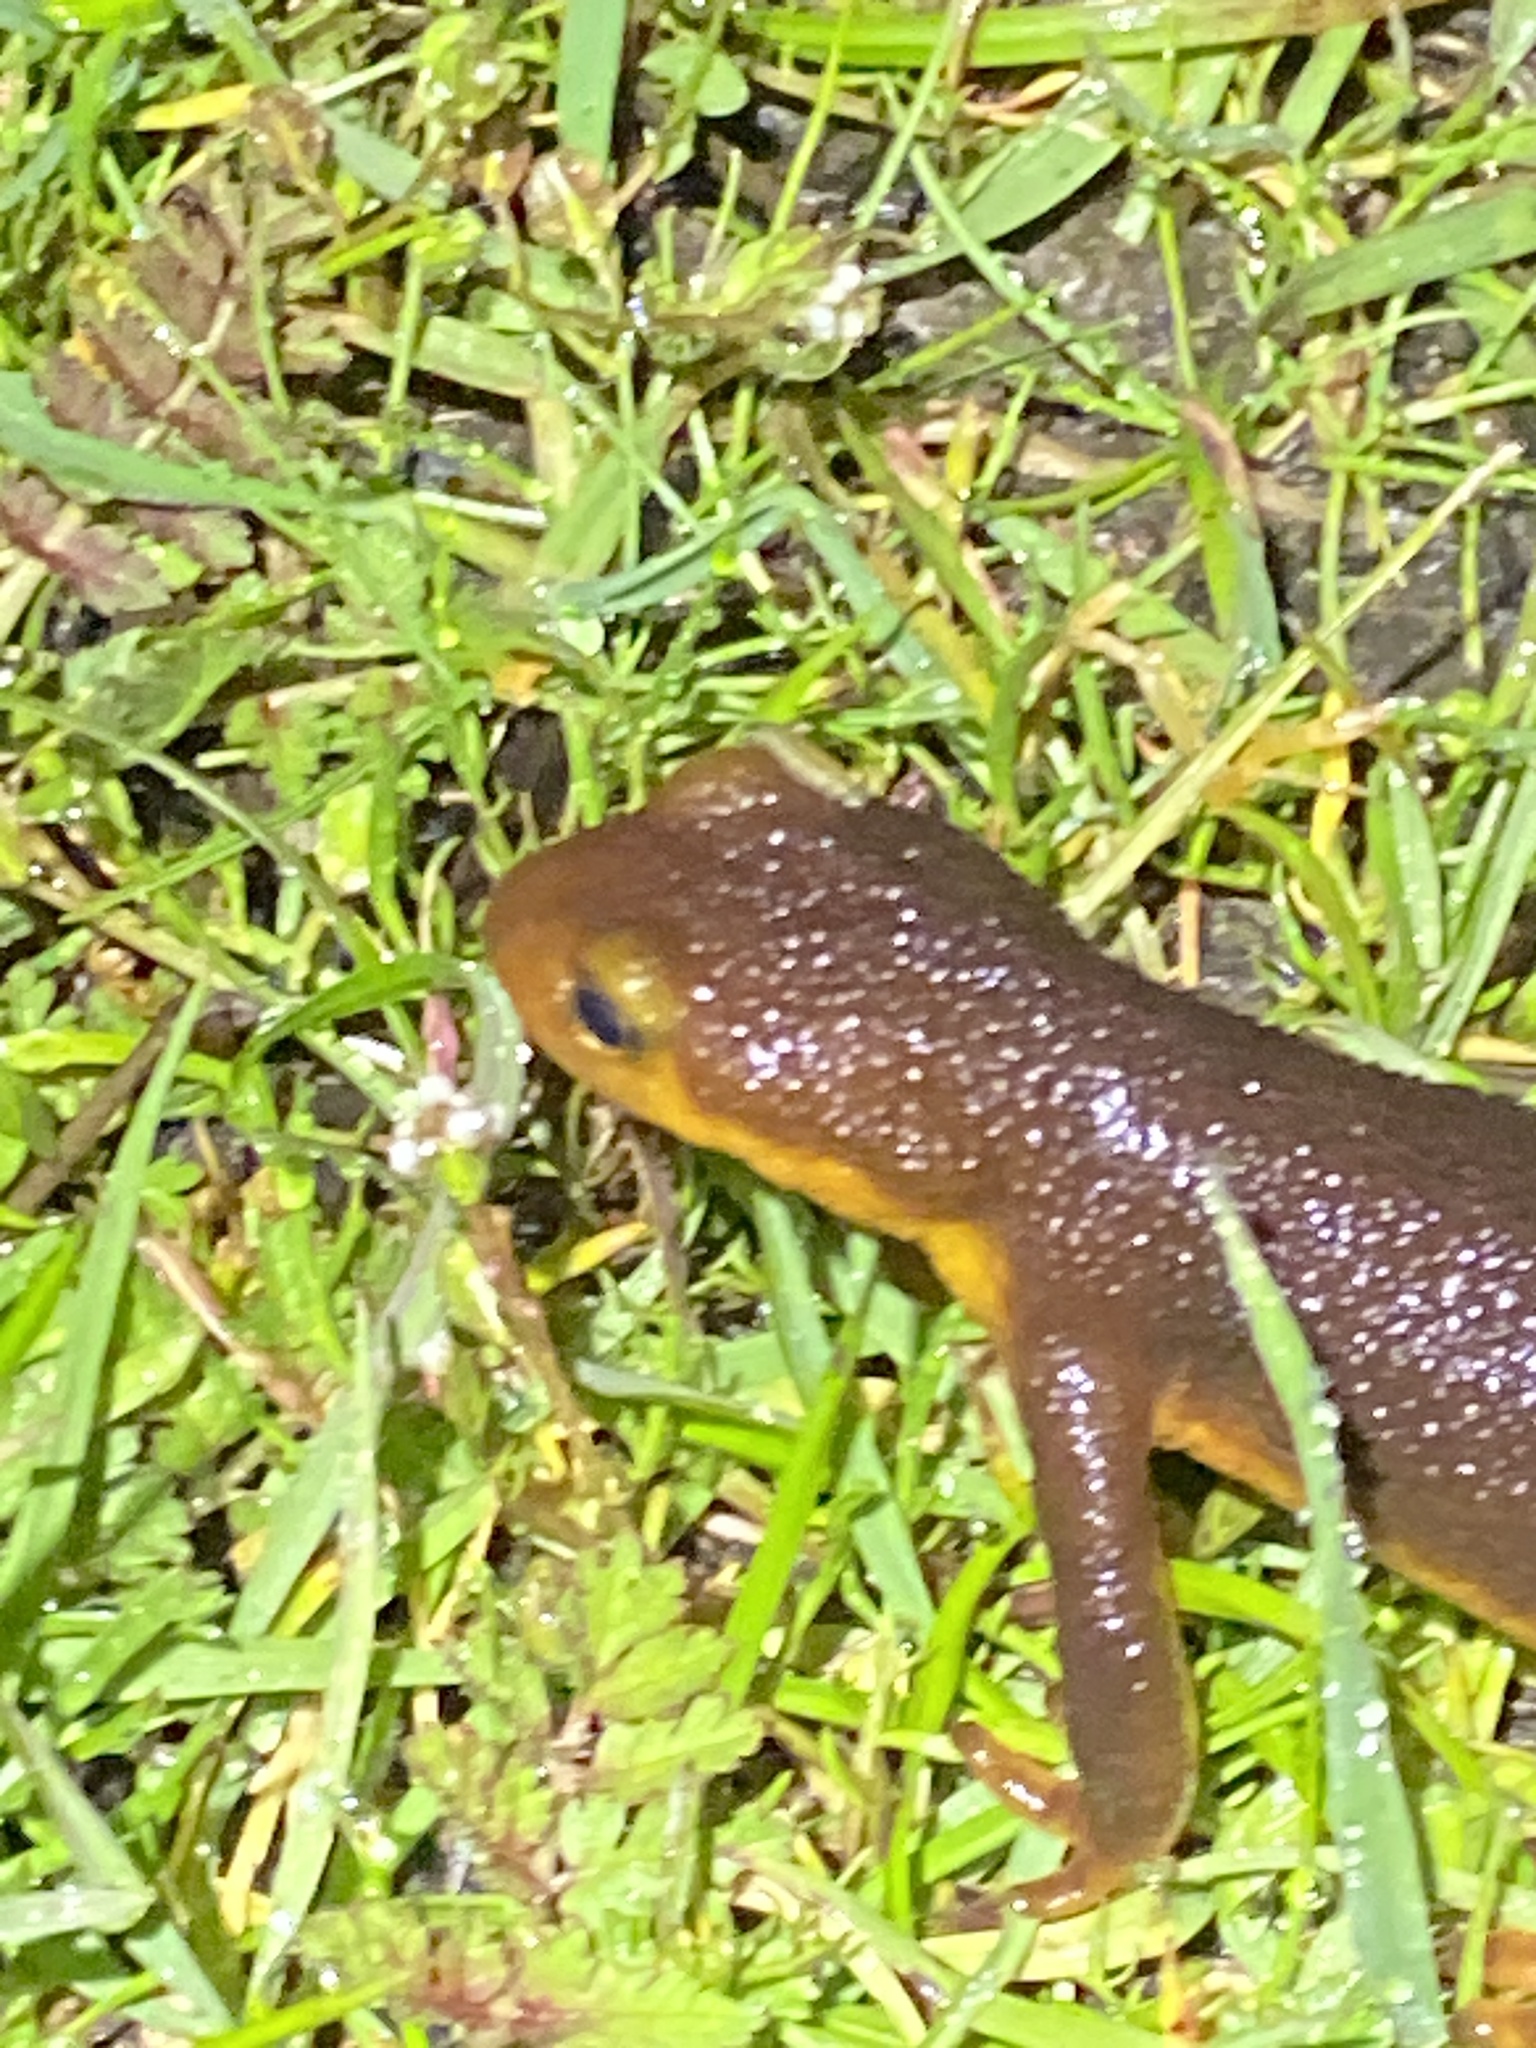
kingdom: Animalia
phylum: Chordata
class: Amphibia
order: Caudata
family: Salamandridae
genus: Taricha
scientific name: Taricha torosa
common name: California newt
